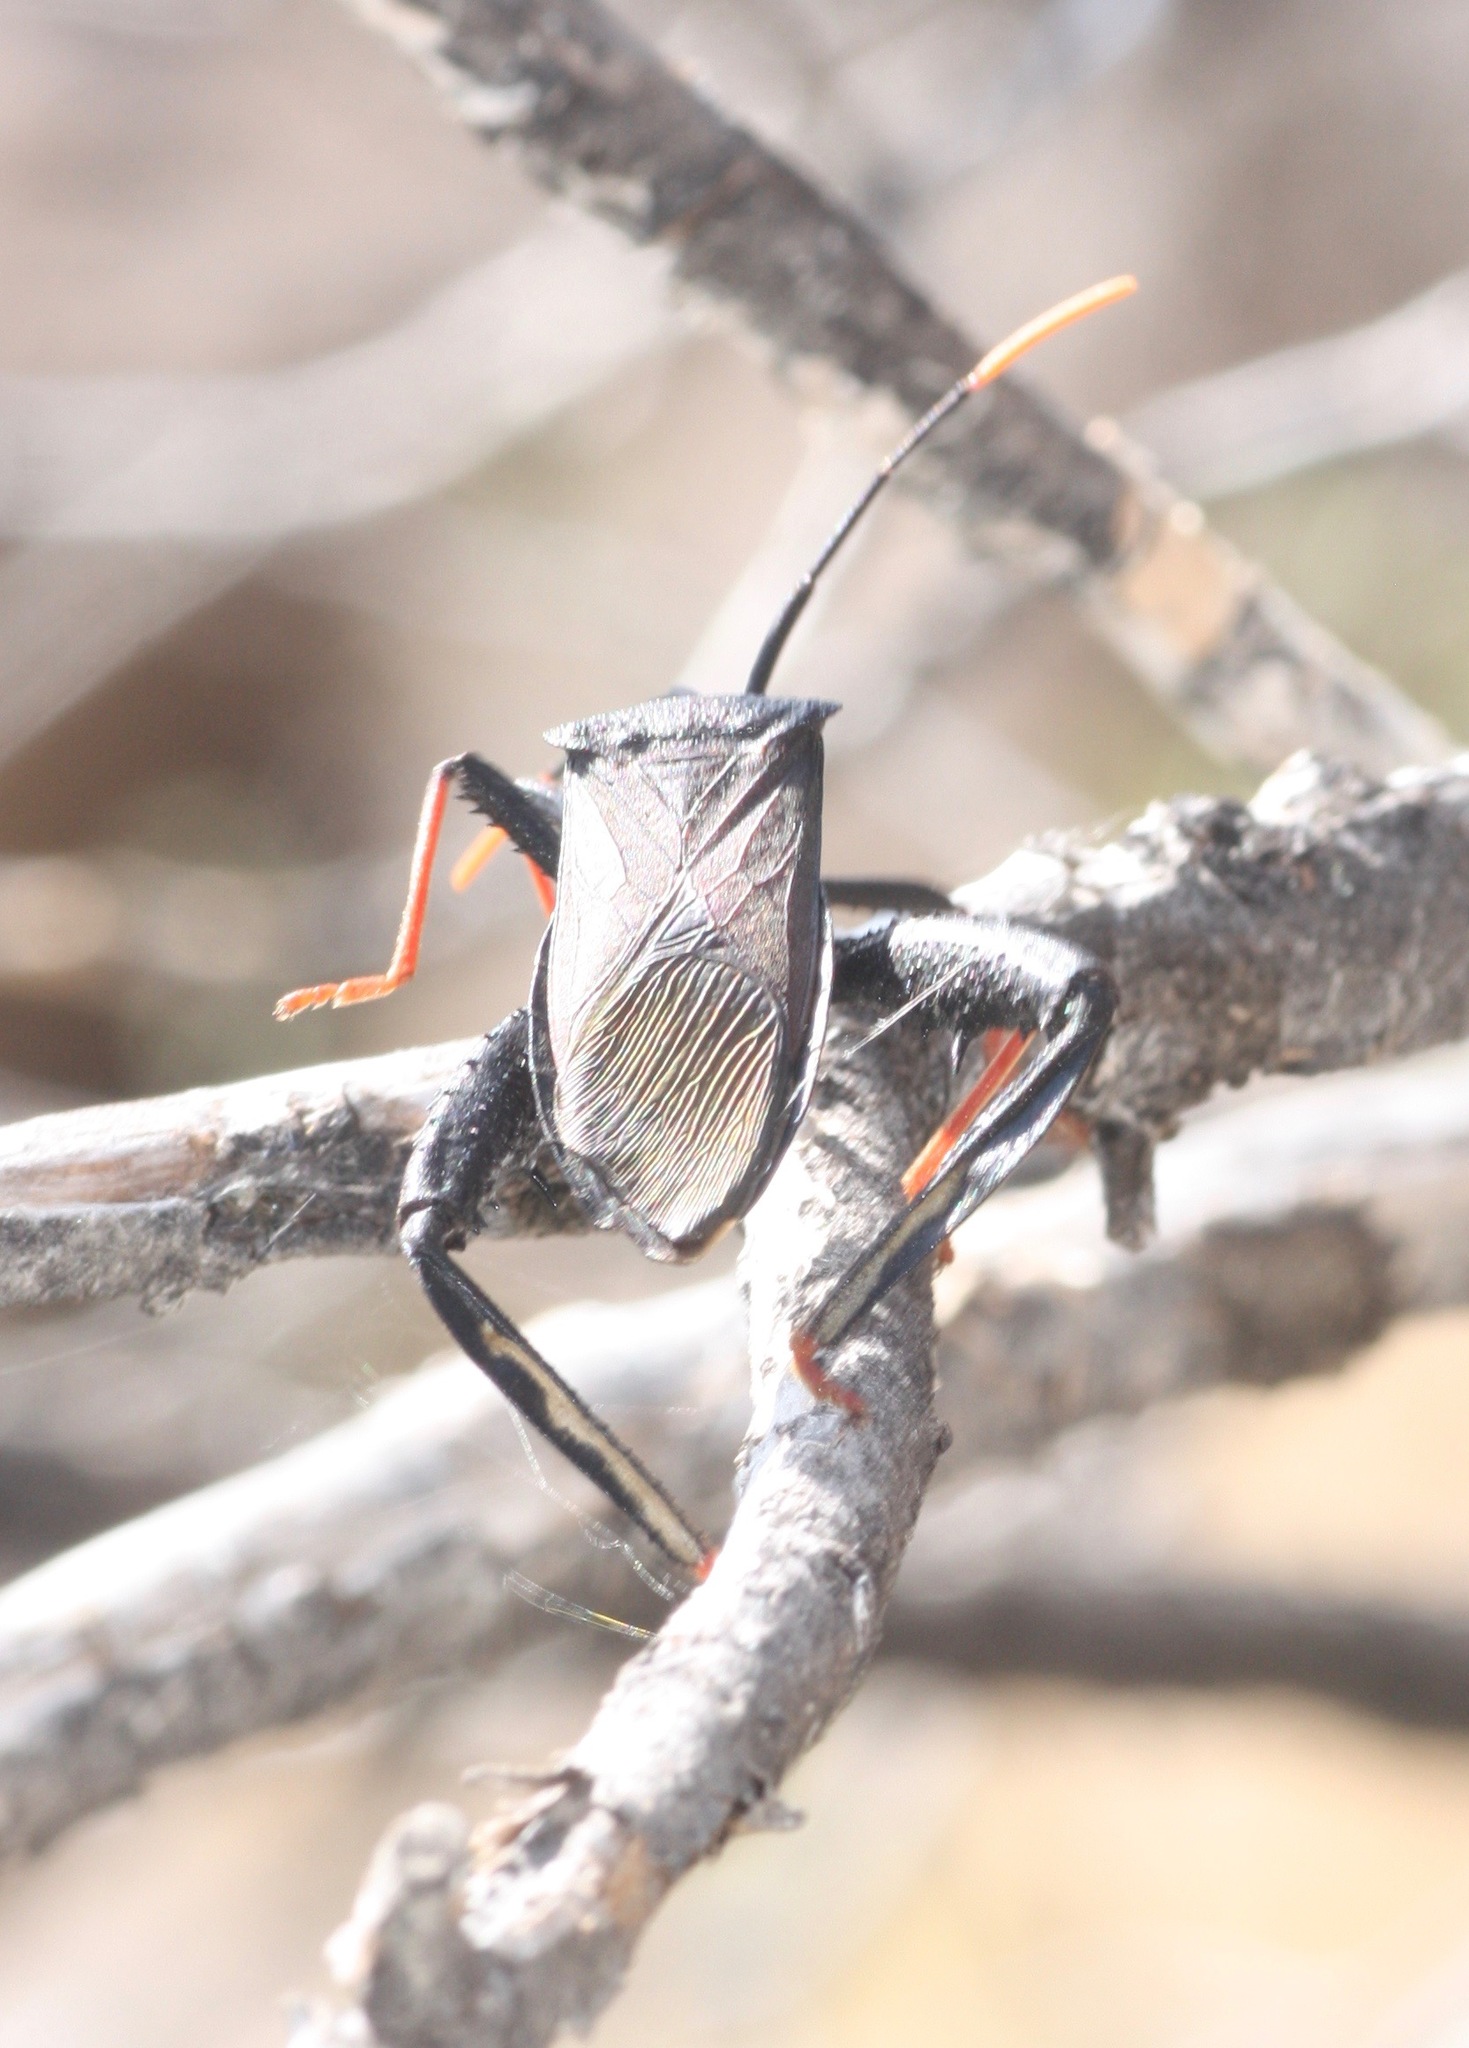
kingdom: Animalia
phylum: Arthropoda
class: Insecta
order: Hemiptera
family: Coreidae
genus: Acanthocephala
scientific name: Acanthocephala thomasi
